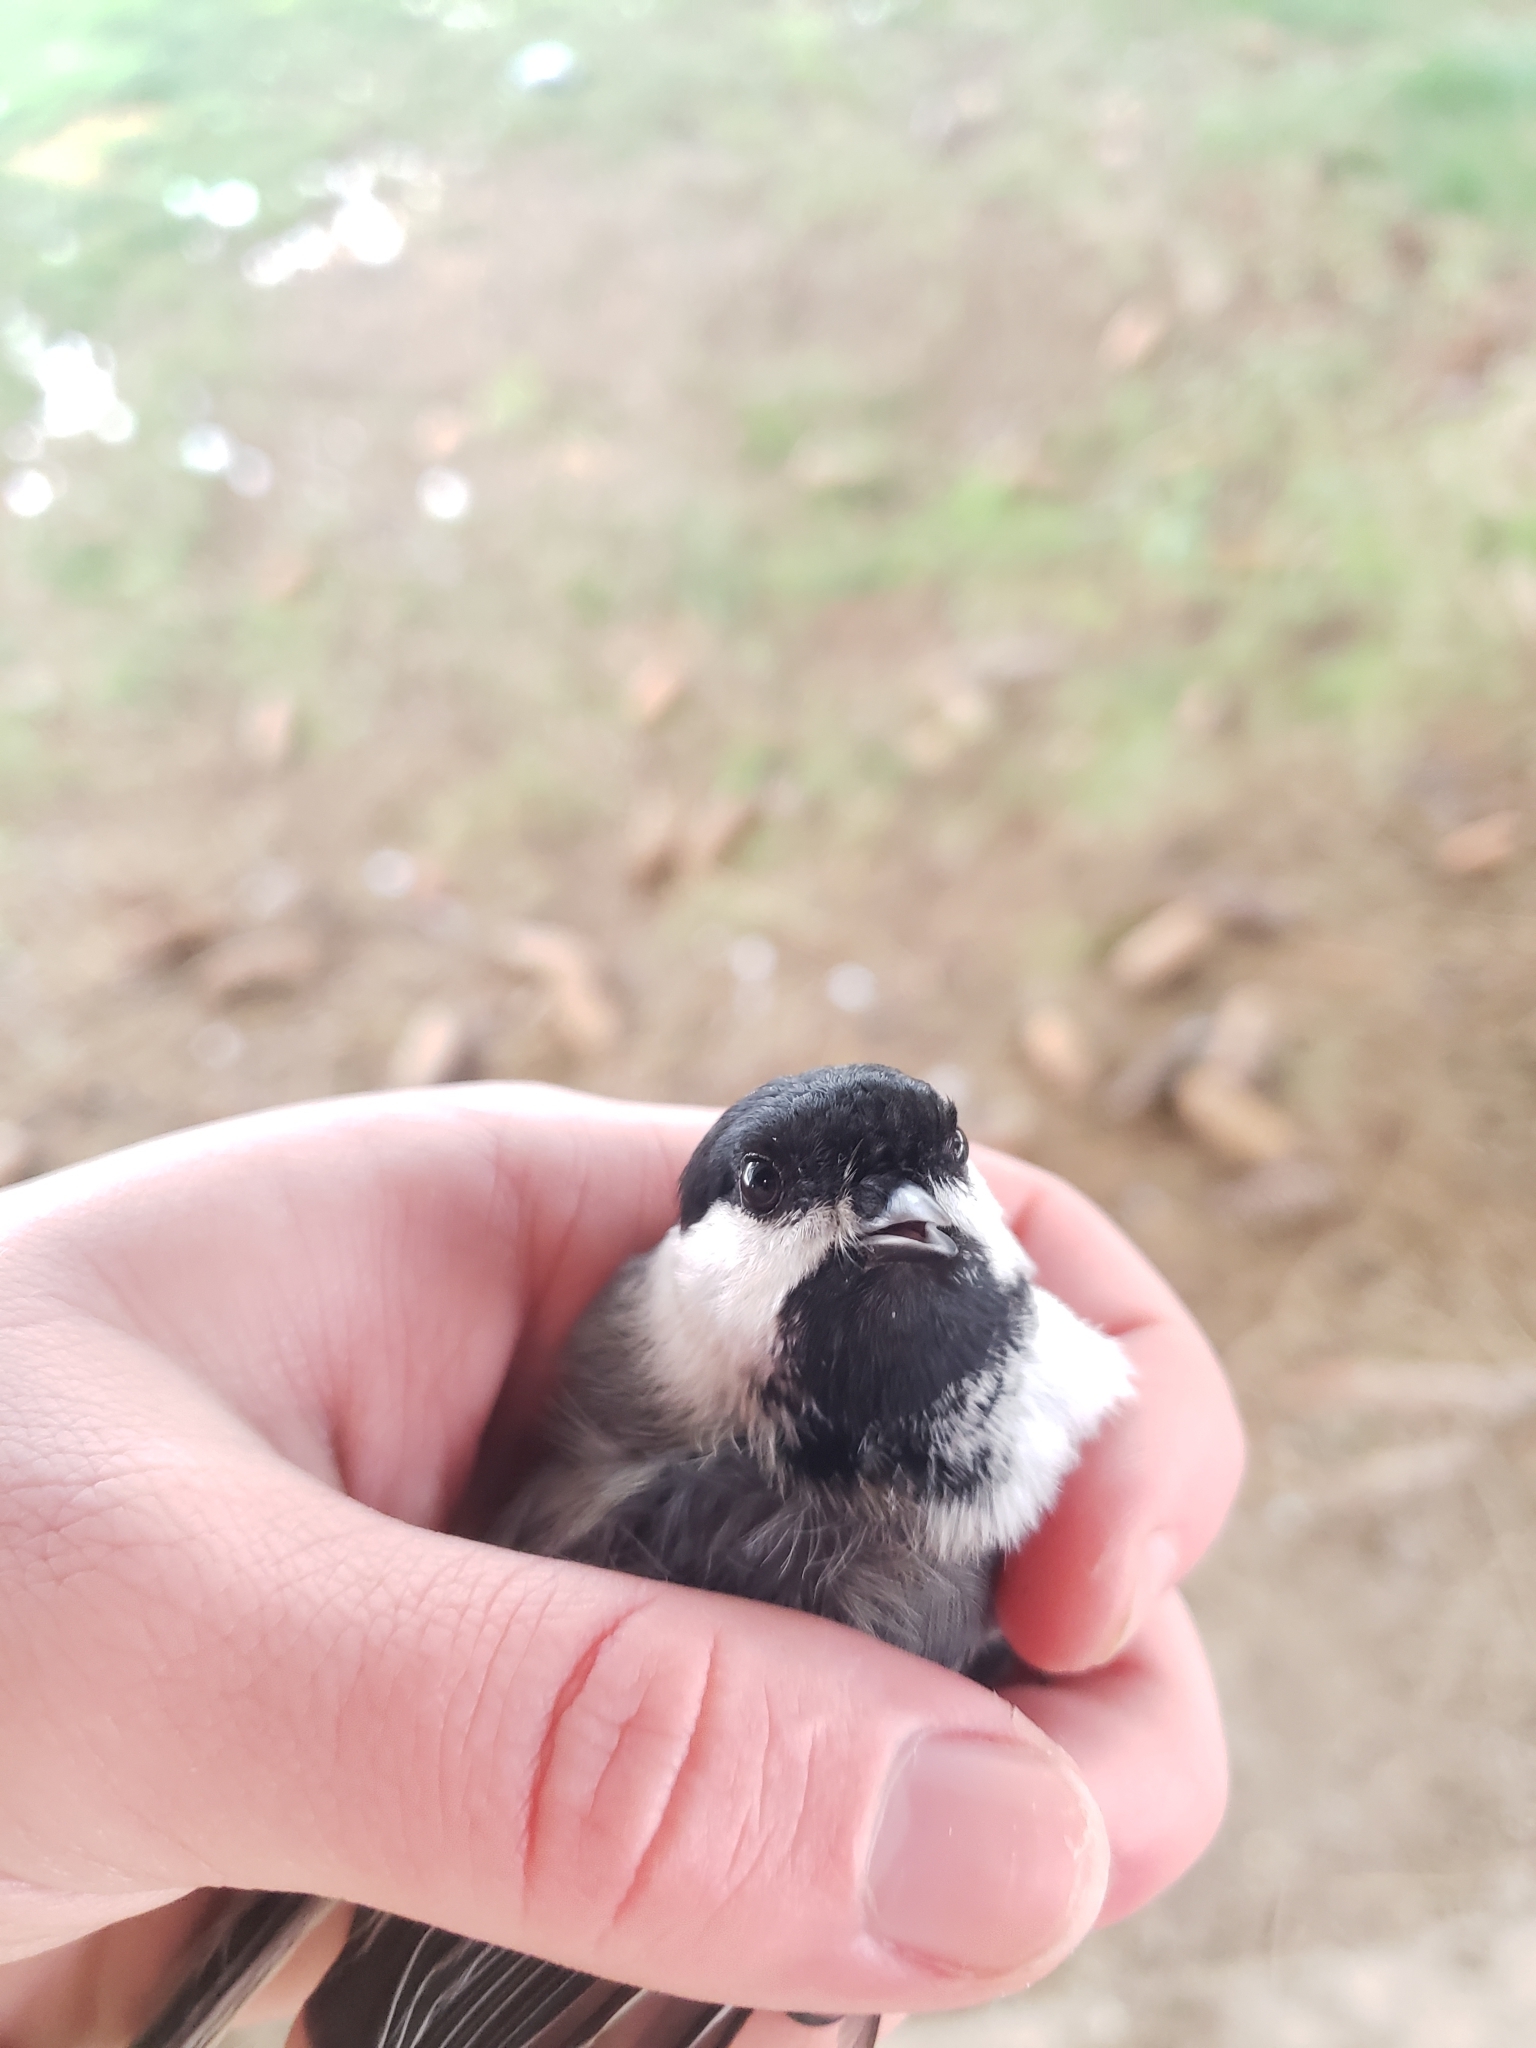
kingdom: Animalia
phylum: Chordata
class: Aves
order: Passeriformes
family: Paridae
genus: Poecile
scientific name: Poecile atricapillus
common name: Black-capped chickadee
